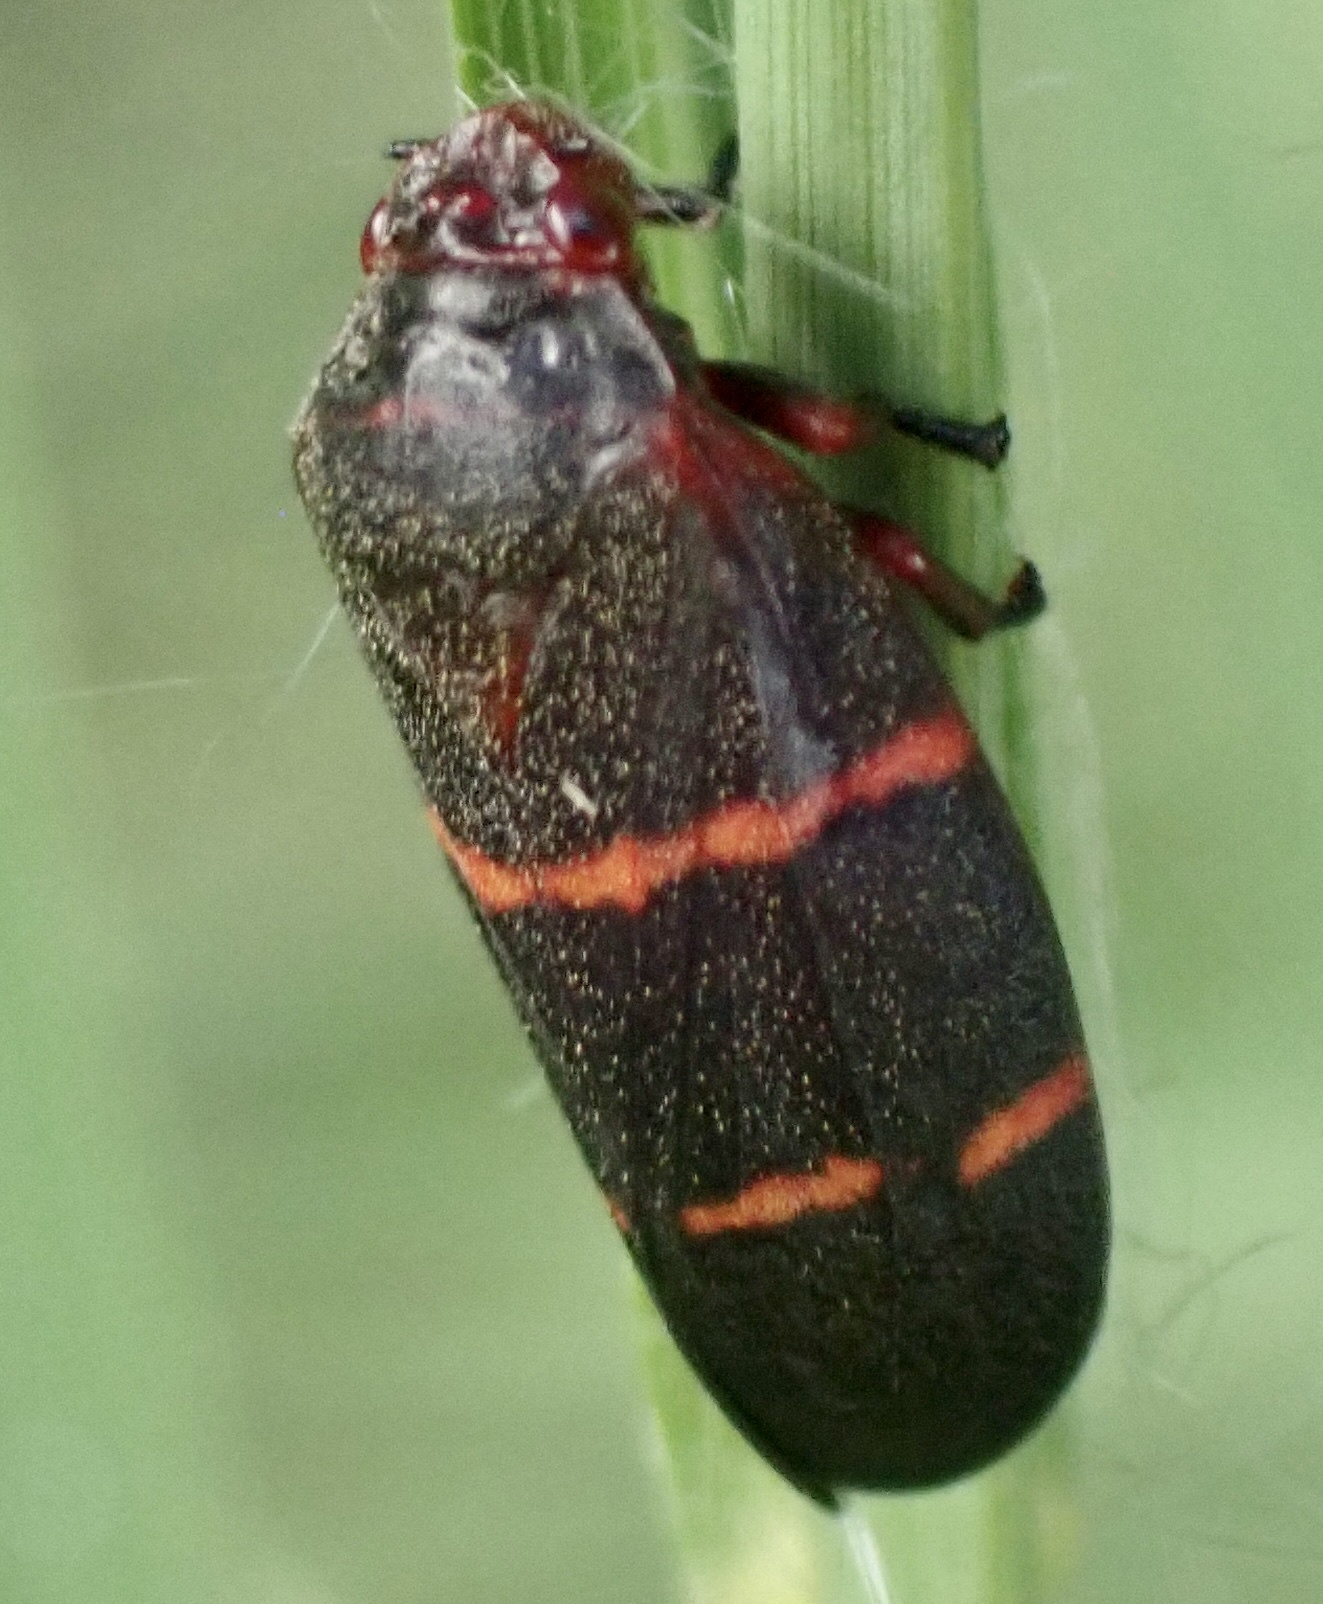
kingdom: Animalia
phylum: Arthropoda
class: Insecta
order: Hemiptera
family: Cercopidae
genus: Prosapia
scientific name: Prosapia bicincta
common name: Twolined spittlebug
